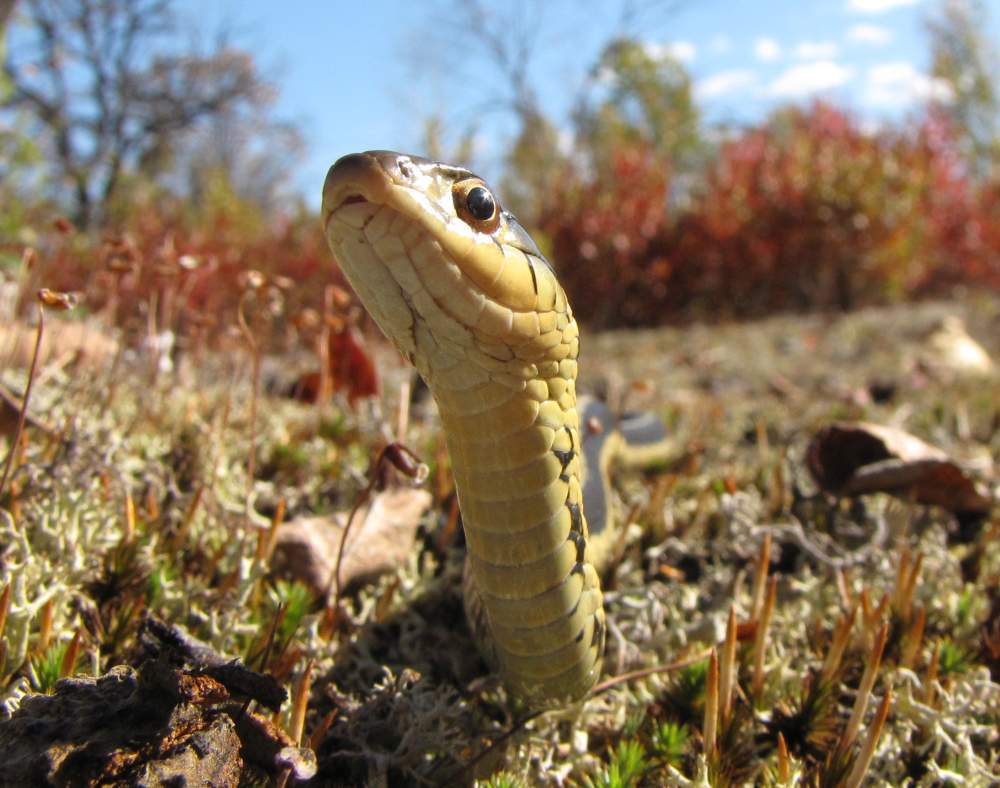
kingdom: Animalia
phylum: Chordata
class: Squamata
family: Colubridae
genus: Thamnophis
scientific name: Thamnophis sirtalis
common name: Common garter snake
